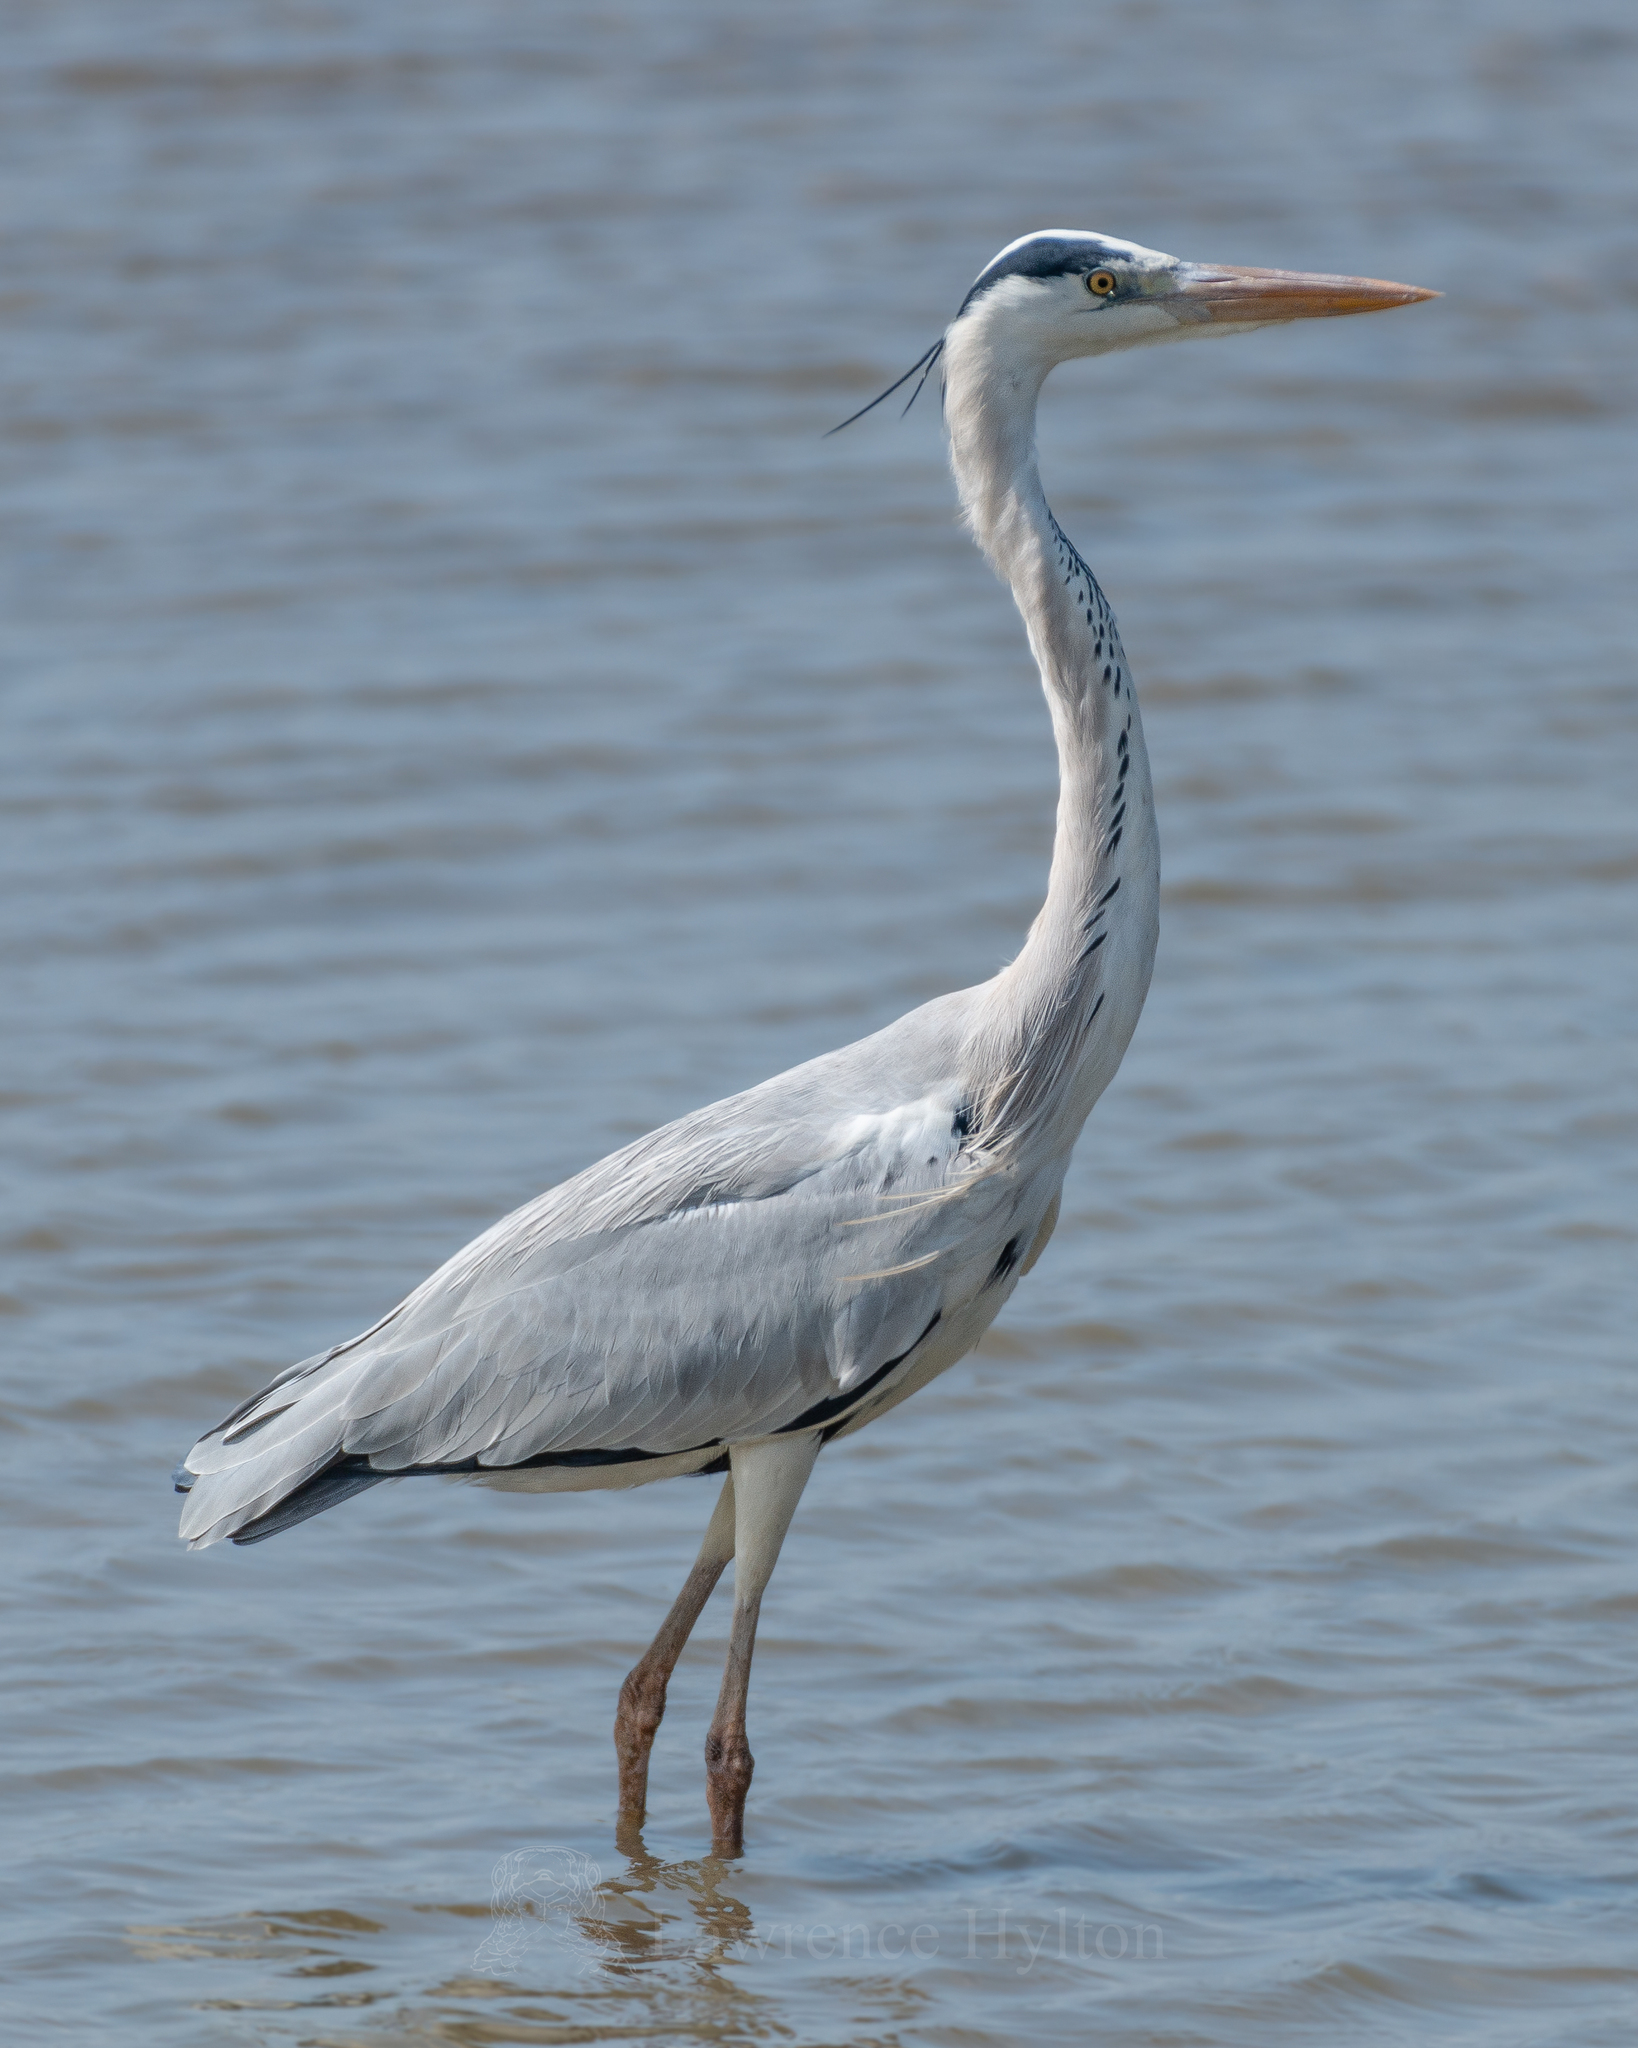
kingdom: Animalia
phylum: Chordata
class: Aves
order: Pelecaniformes
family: Ardeidae
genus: Ardea
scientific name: Ardea cinerea
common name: Grey heron
